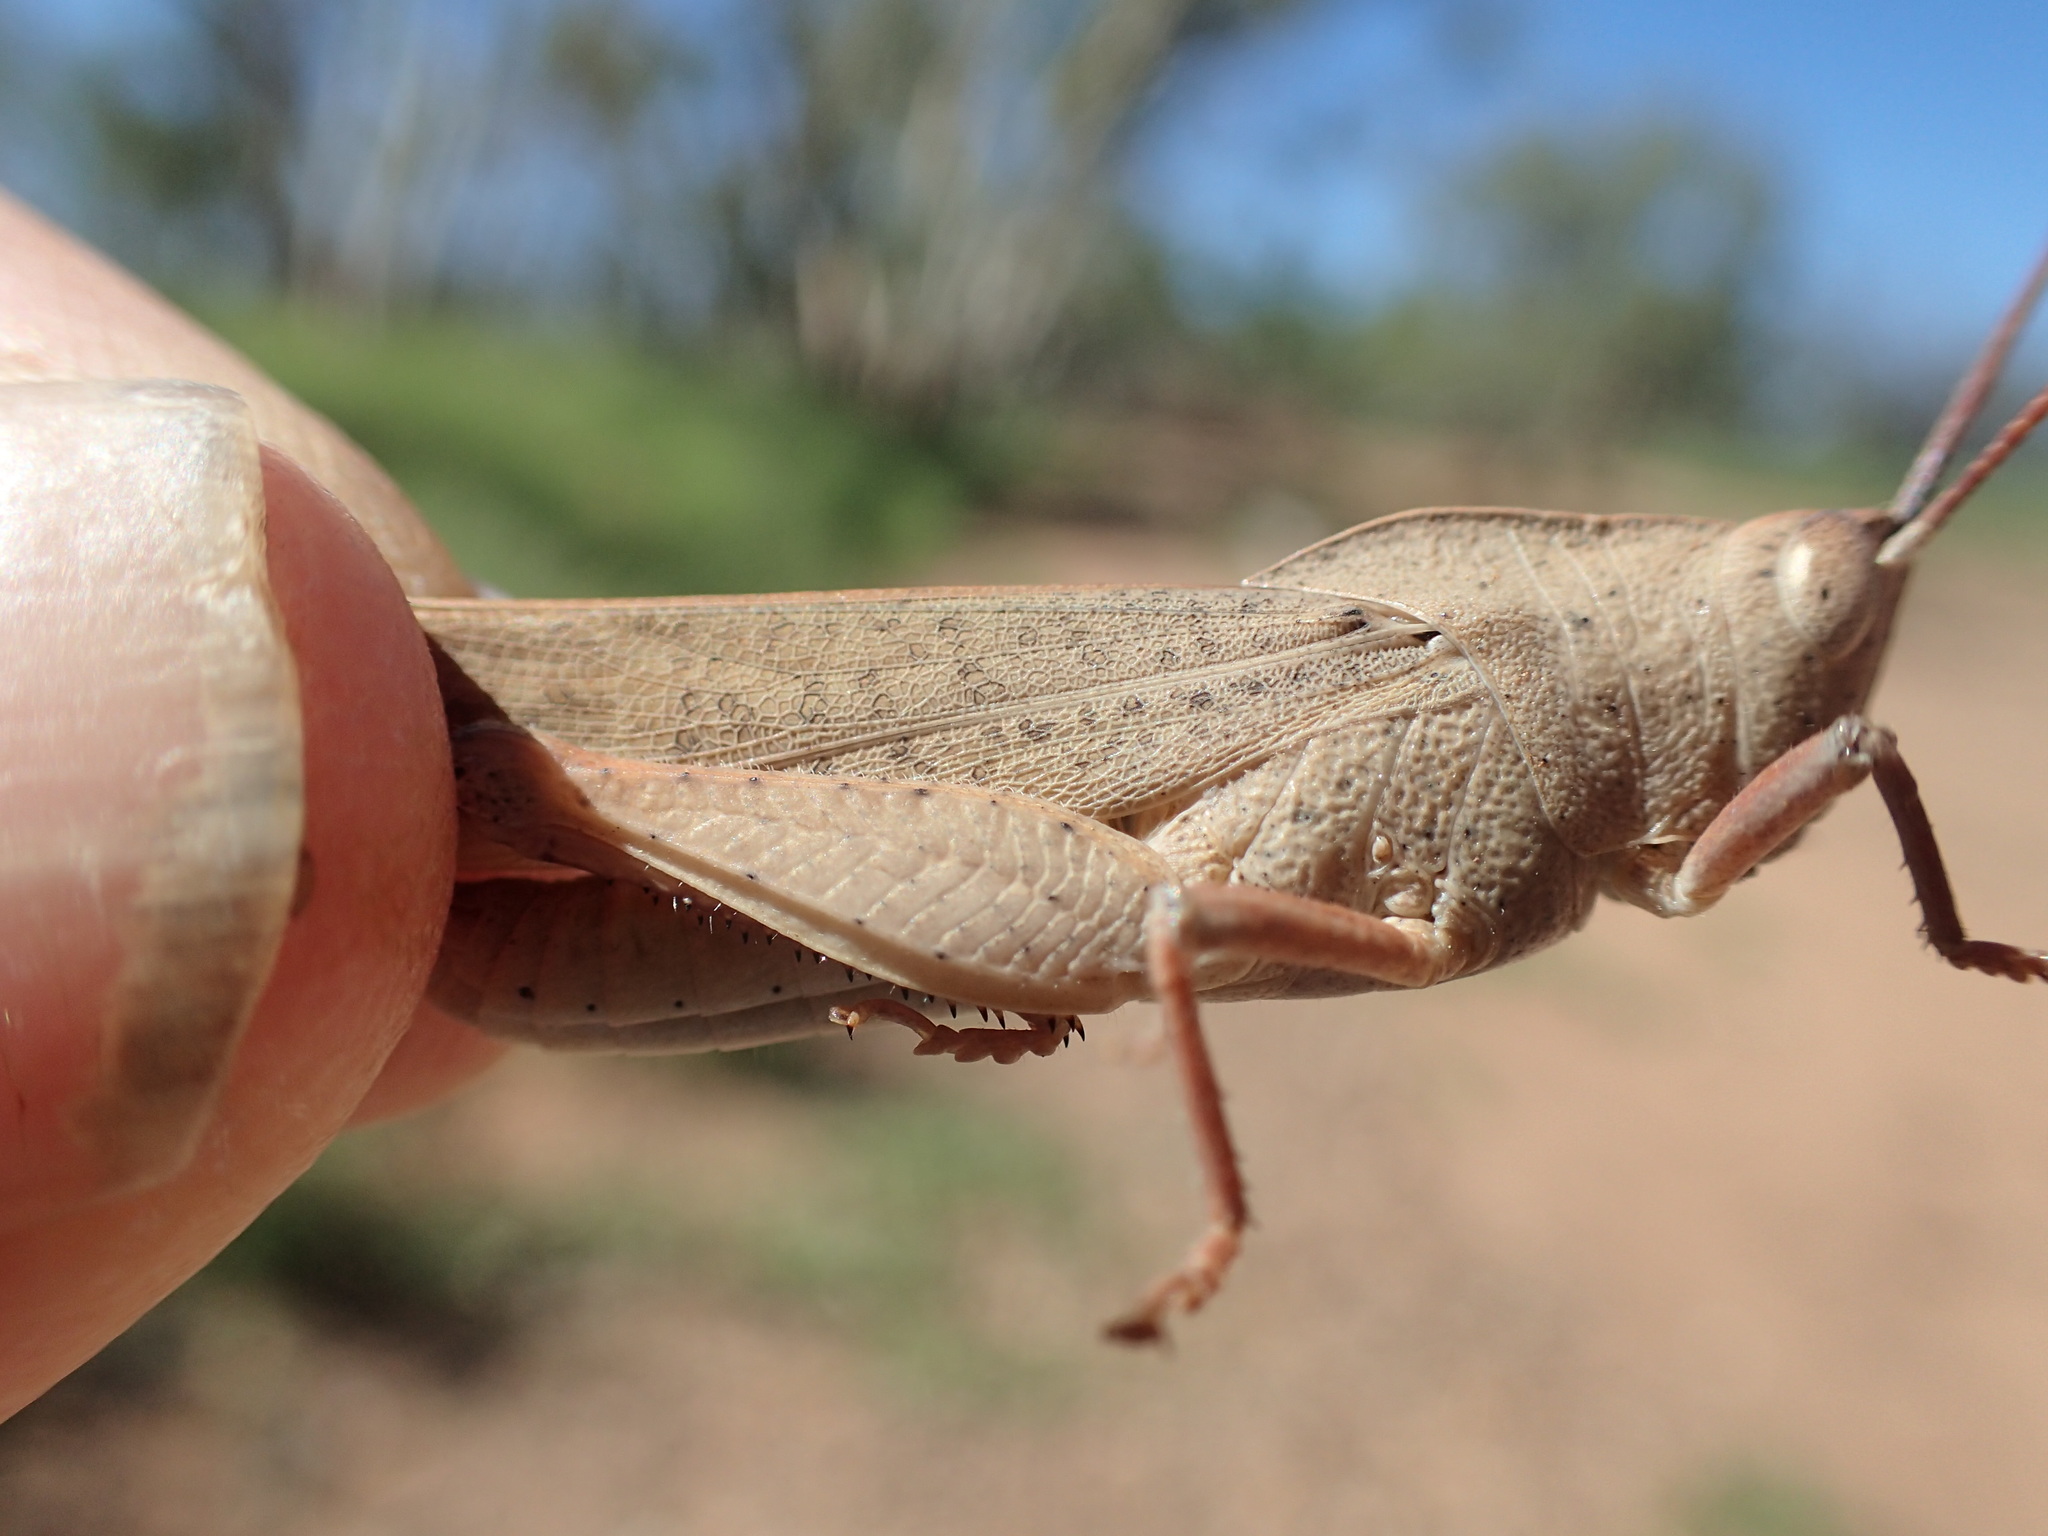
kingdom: Animalia
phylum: Arthropoda
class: Insecta
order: Orthoptera
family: Acrididae
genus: Goniaea
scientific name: Goniaea australasiae
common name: Gumleaf grasshopper
